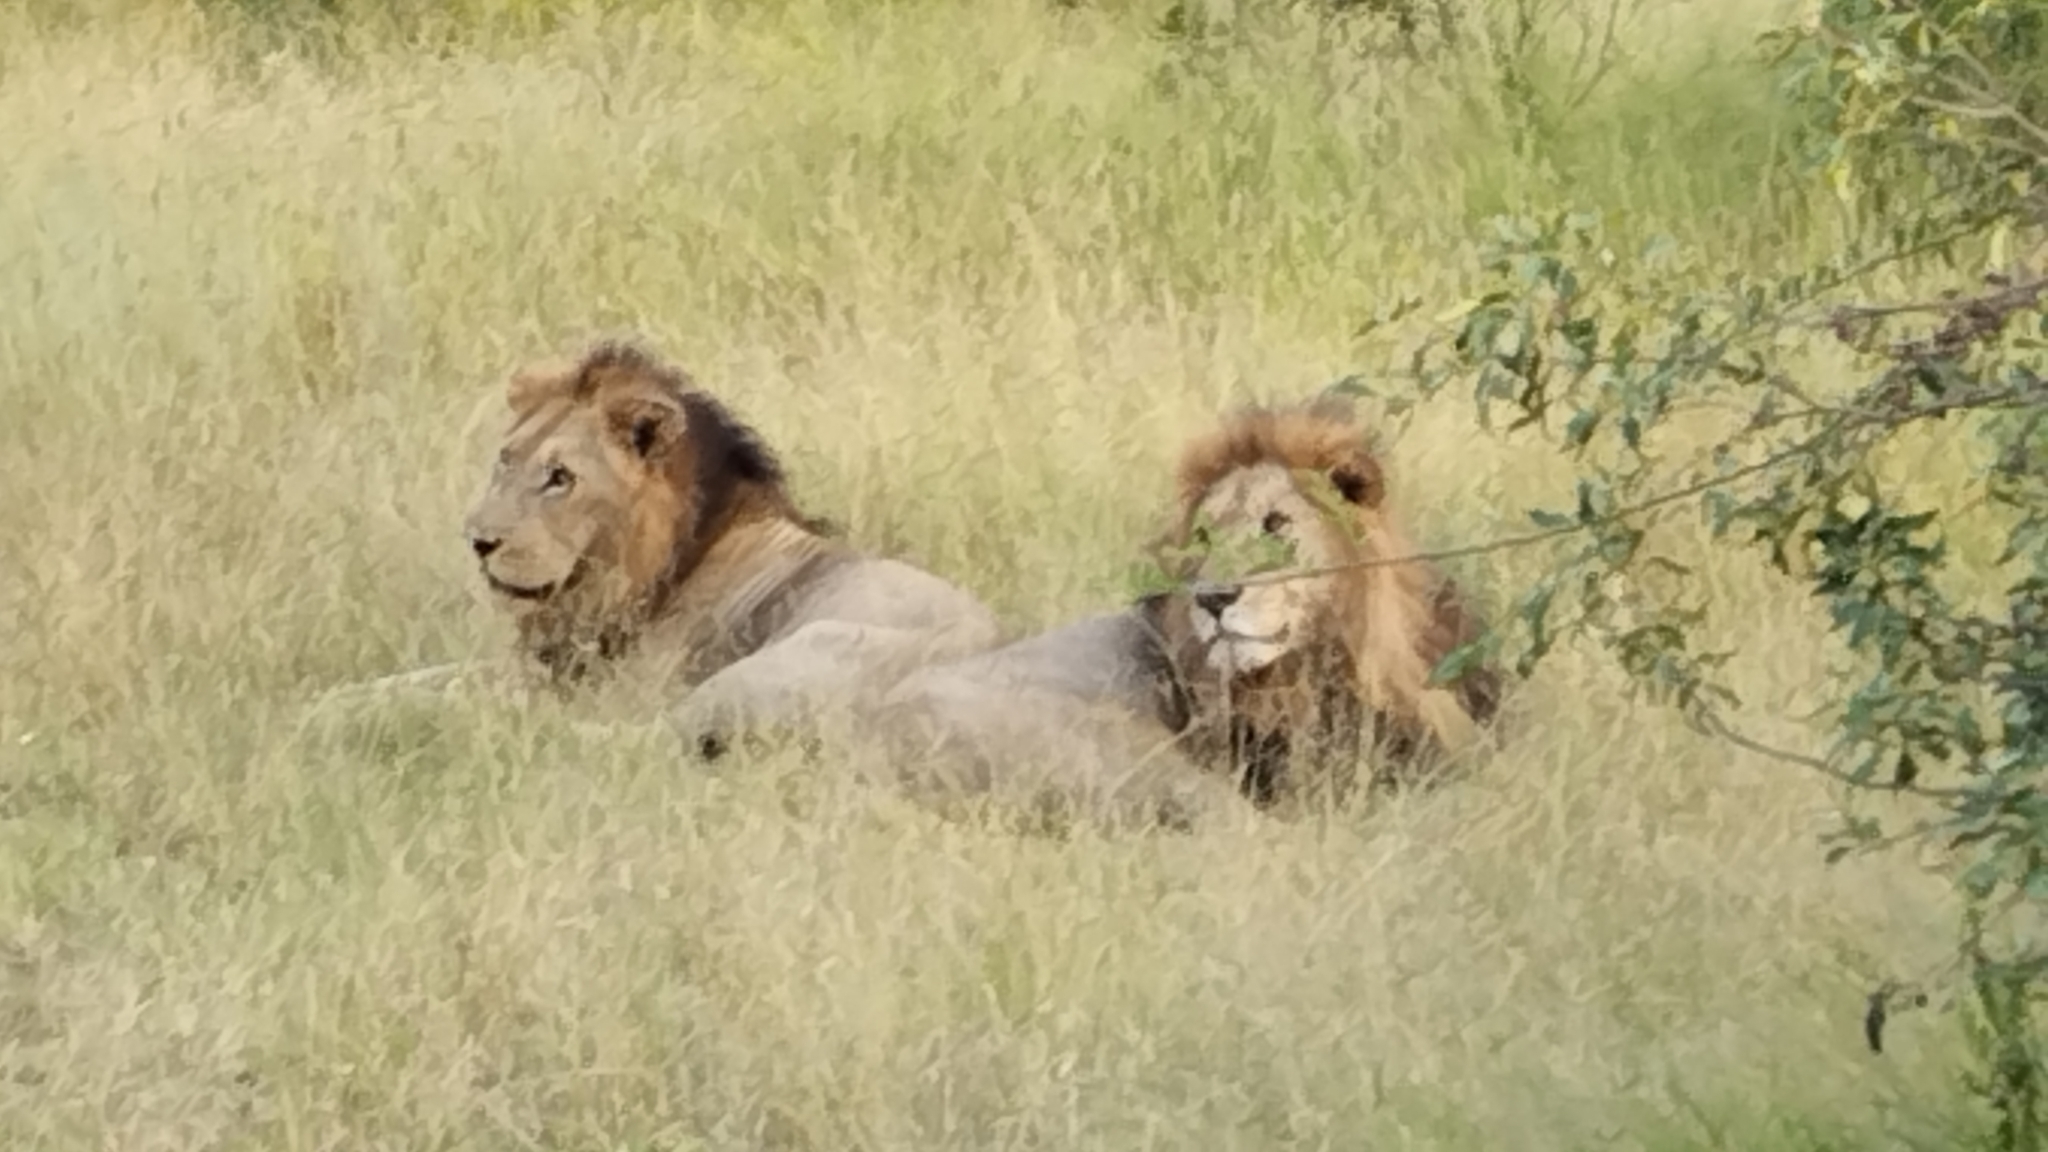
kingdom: Animalia
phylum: Chordata
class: Mammalia
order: Carnivora
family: Felidae
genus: Panthera
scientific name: Panthera leo
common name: Lion
